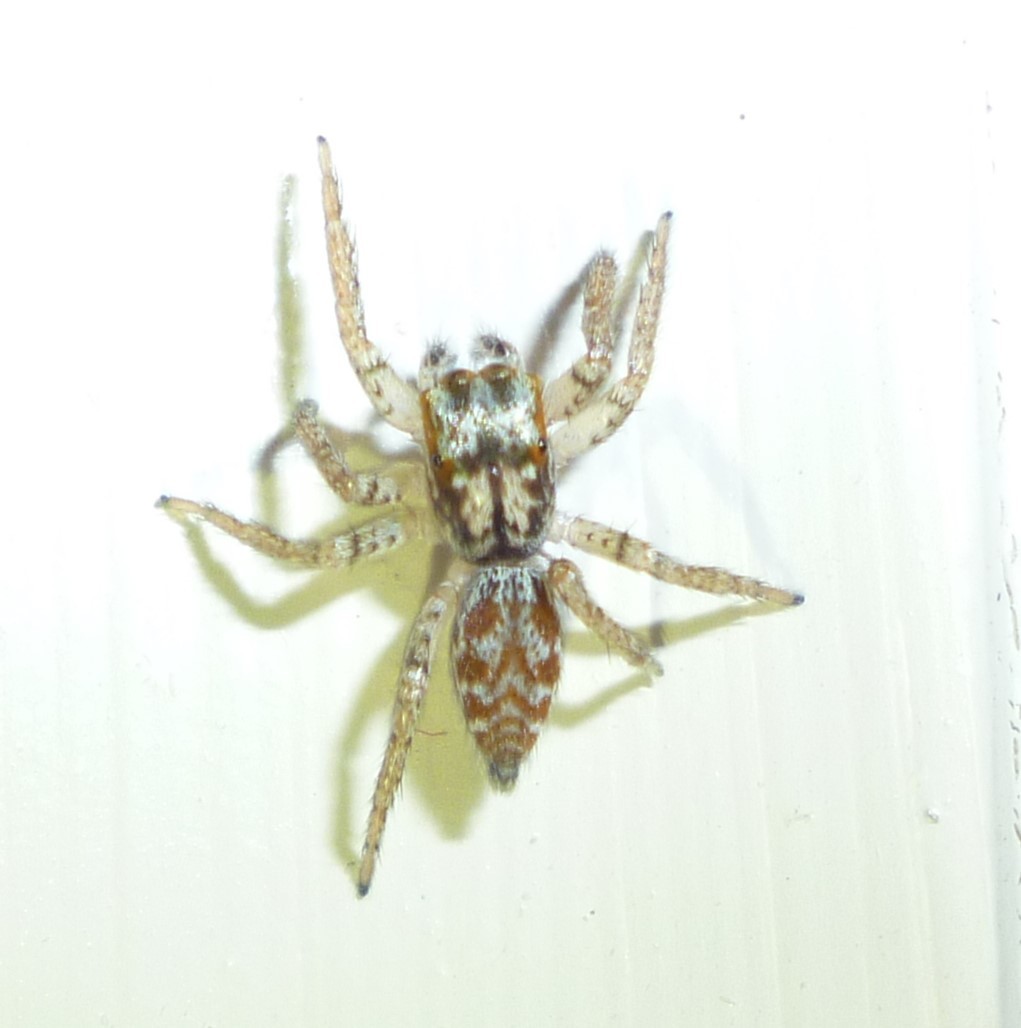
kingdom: Animalia
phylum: Arthropoda
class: Arachnida
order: Araneae
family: Salticidae
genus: Maevia
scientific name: Maevia inclemens
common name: Dimorphic jumper
